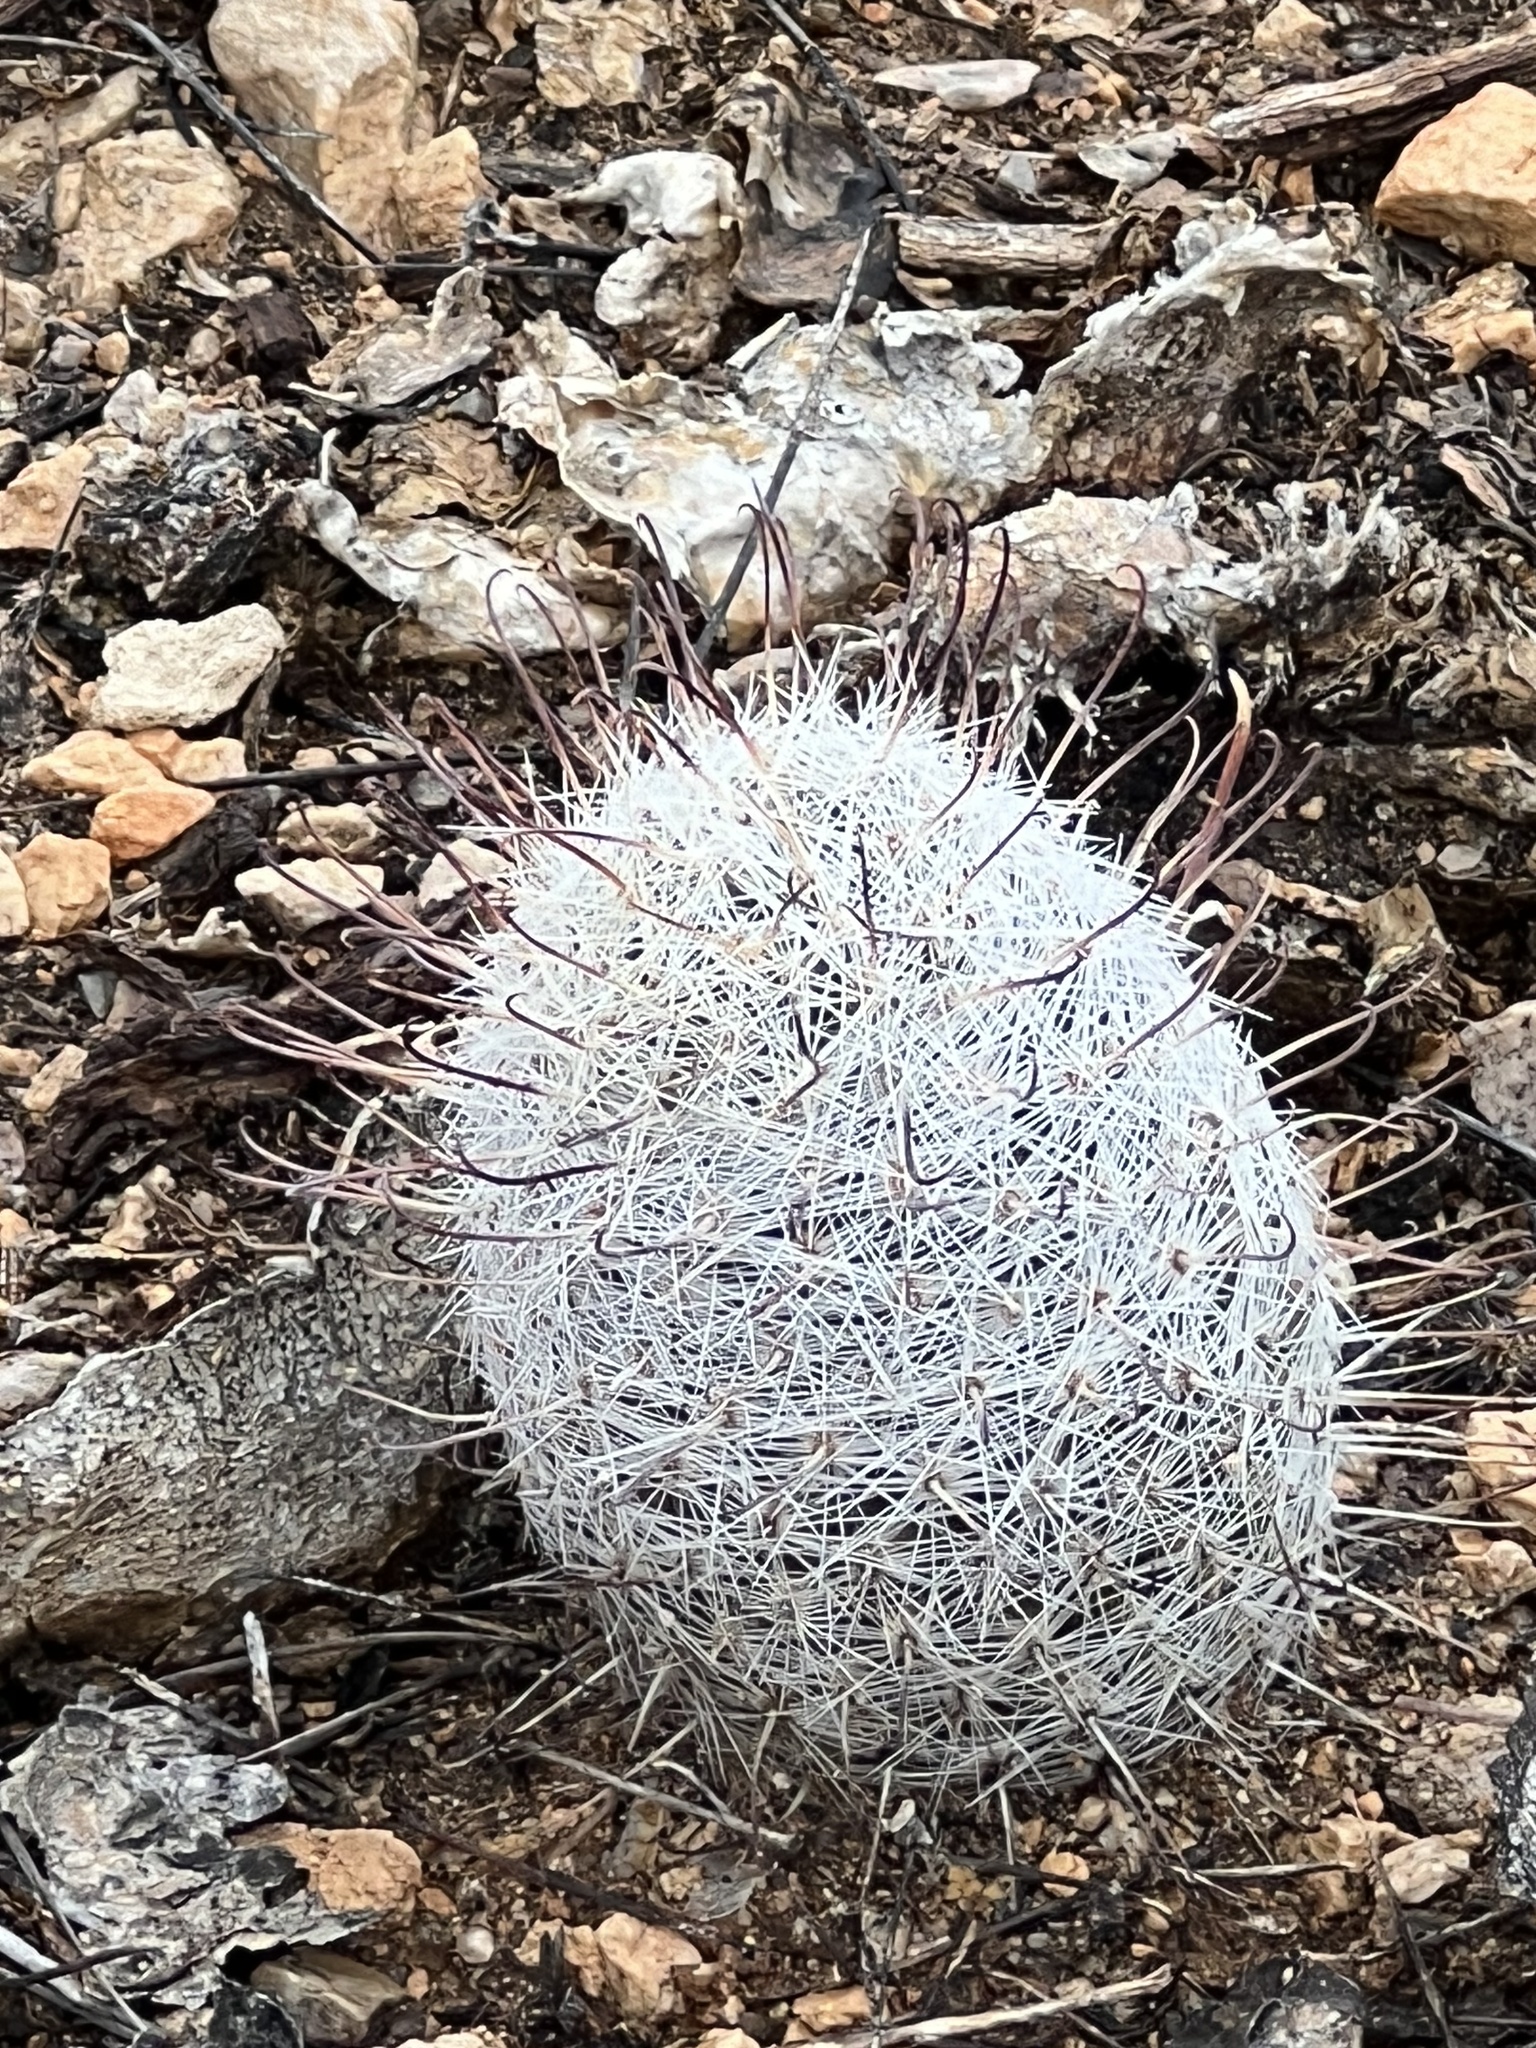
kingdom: Plantae
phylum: Tracheophyta
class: Magnoliopsida
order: Caryophyllales
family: Cactaceae
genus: Cochemiea
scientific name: Cochemiea grahamii
